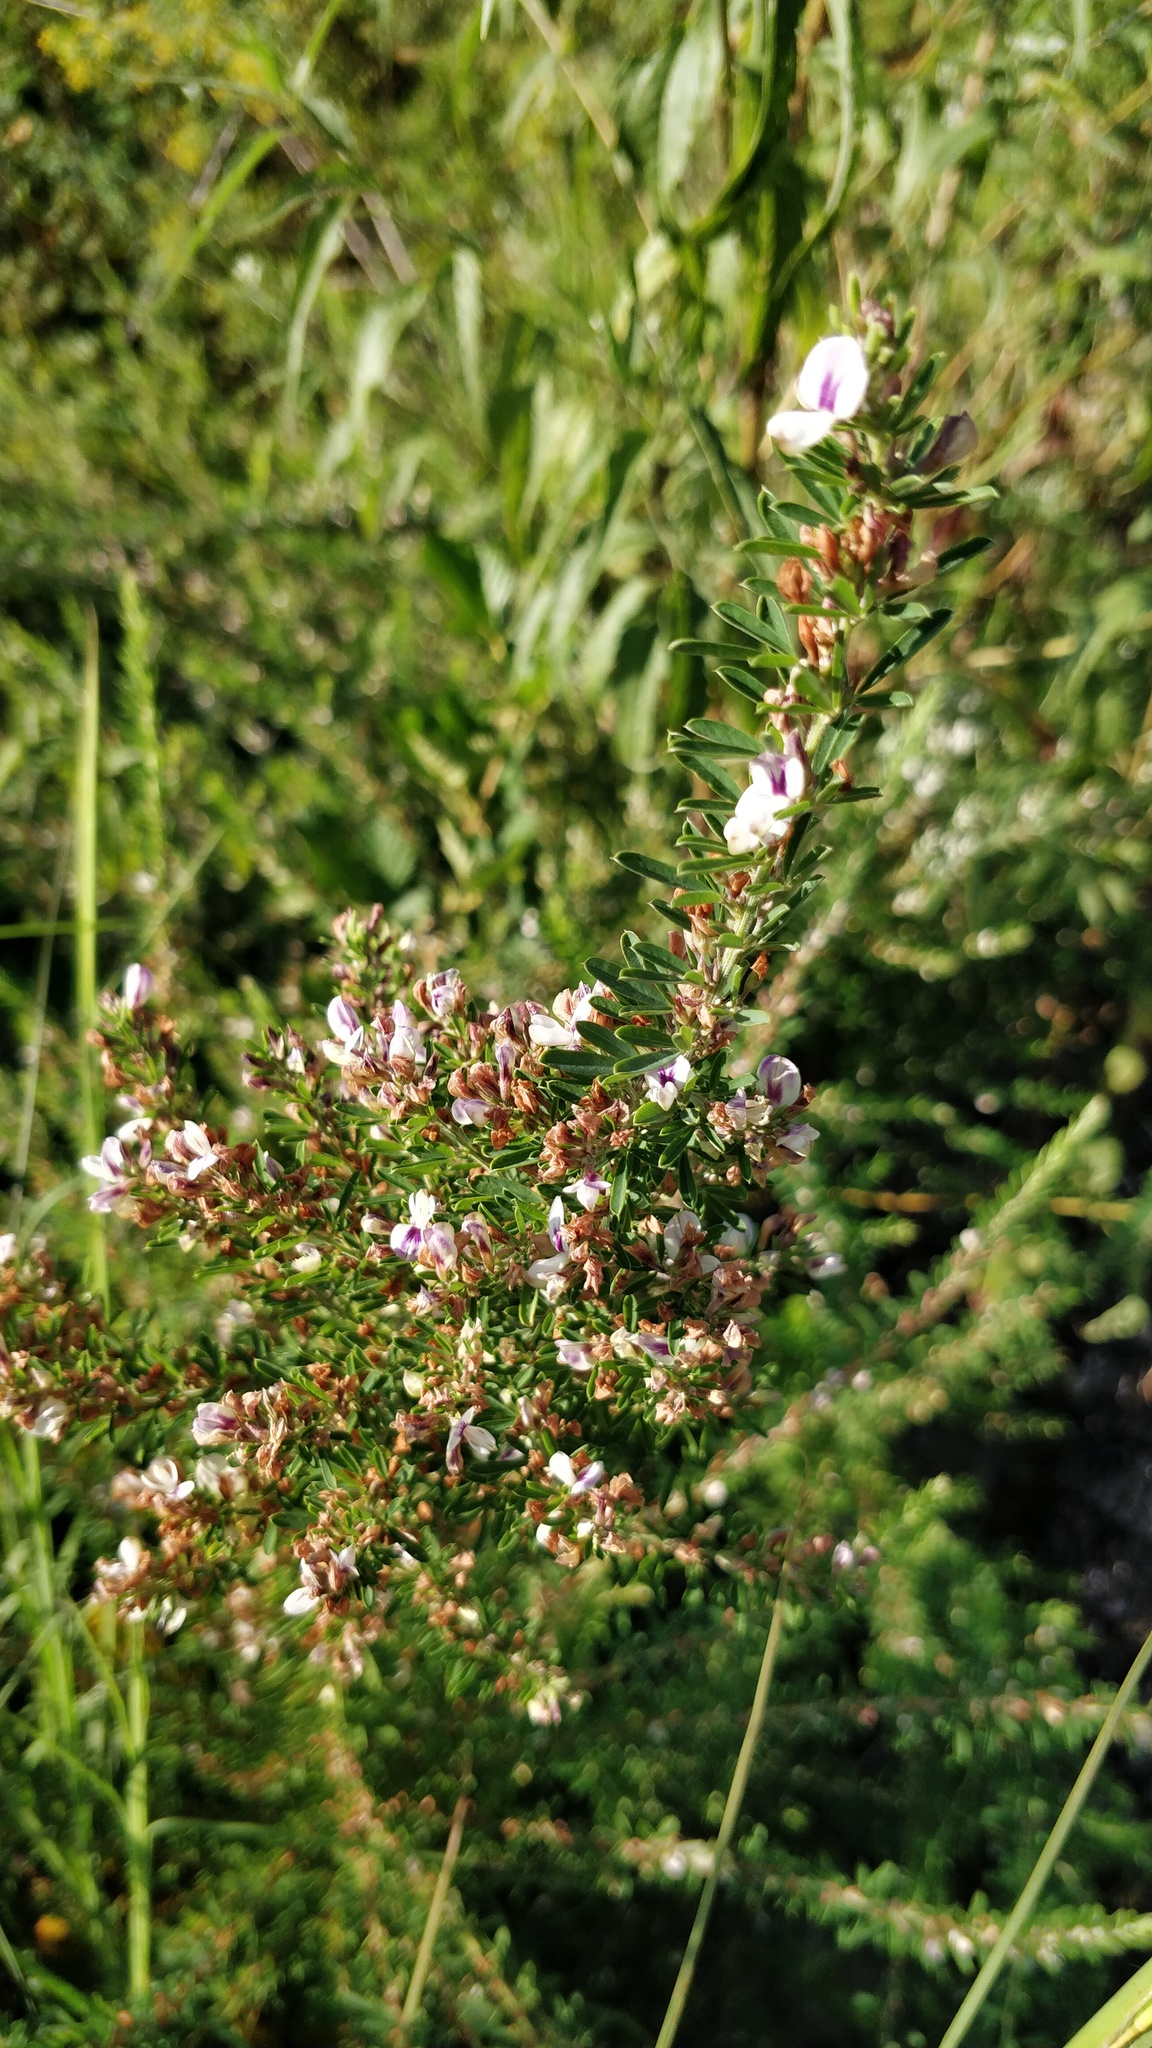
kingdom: Plantae
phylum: Tracheophyta
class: Magnoliopsida
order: Fabales
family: Fabaceae
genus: Lespedeza
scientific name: Lespedeza cuneata
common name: Chinese bush-clover
